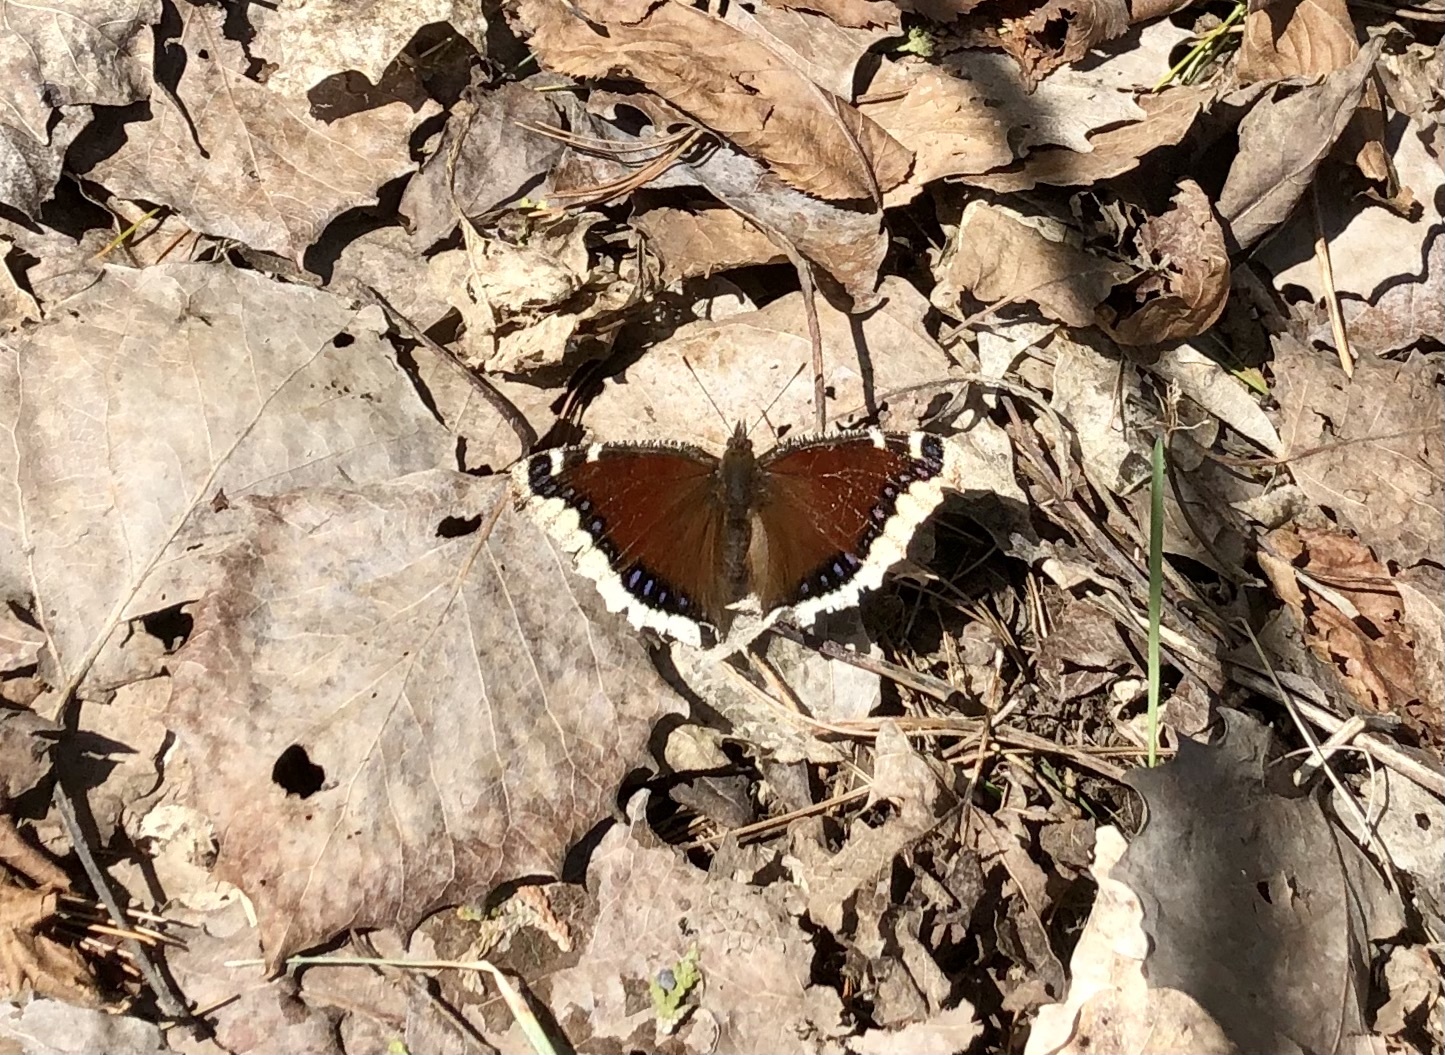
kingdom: Animalia
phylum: Arthropoda
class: Insecta
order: Lepidoptera
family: Nymphalidae
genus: Nymphalis
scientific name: Nymphalis antiopa
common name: Camberwell beauty
